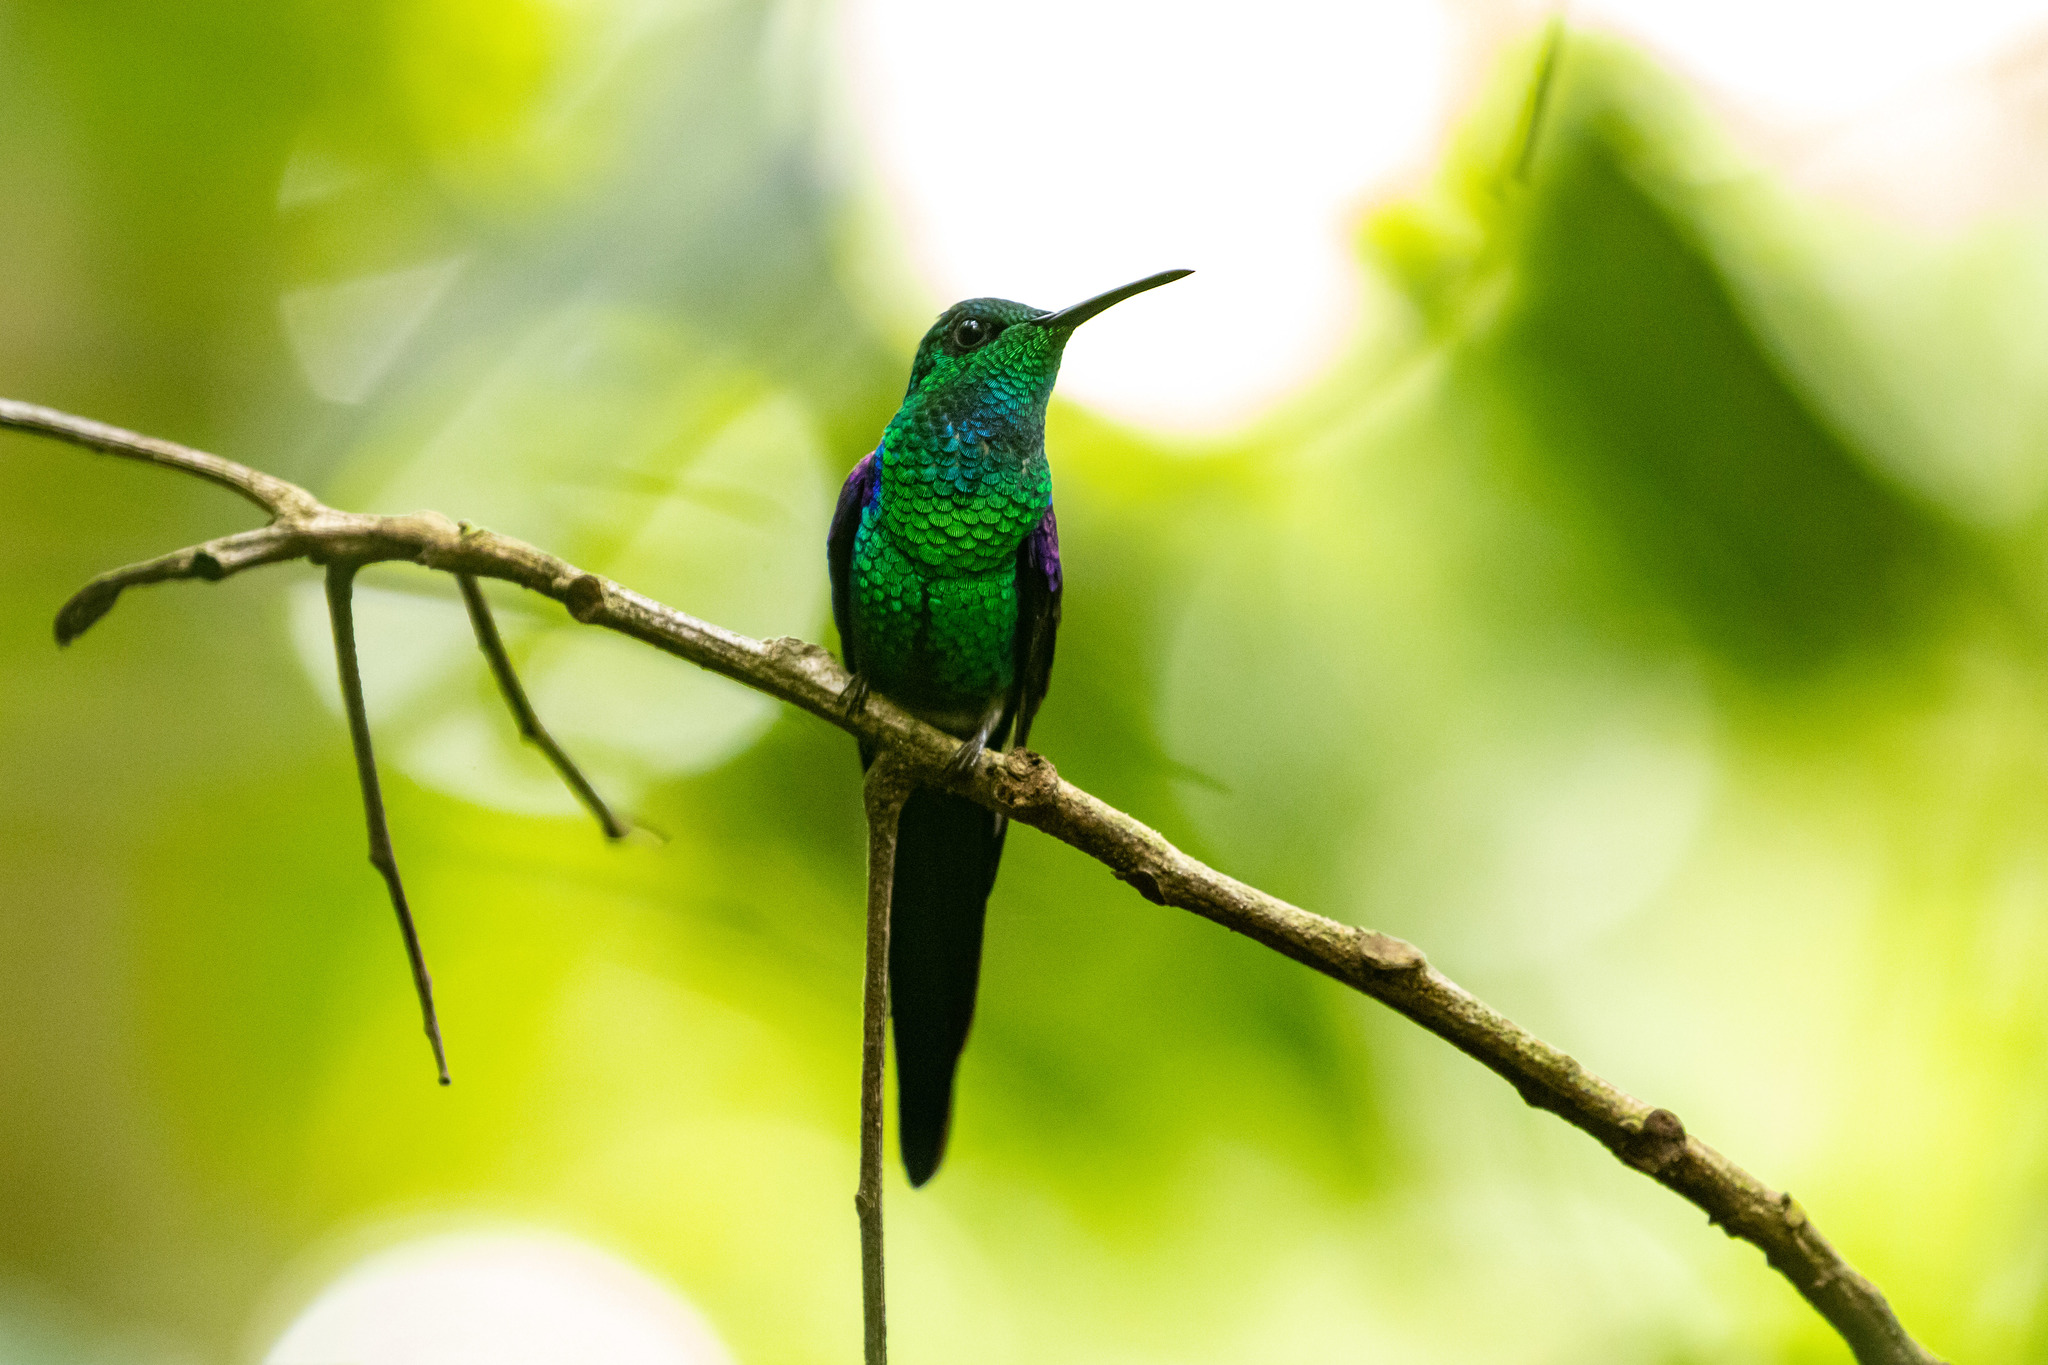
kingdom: Animalia
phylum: Chordata
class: Aves
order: Apodiformes
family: Trochilidae
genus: Thalurania
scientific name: Thalurania watertonii
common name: Long-tailed woodnymph
